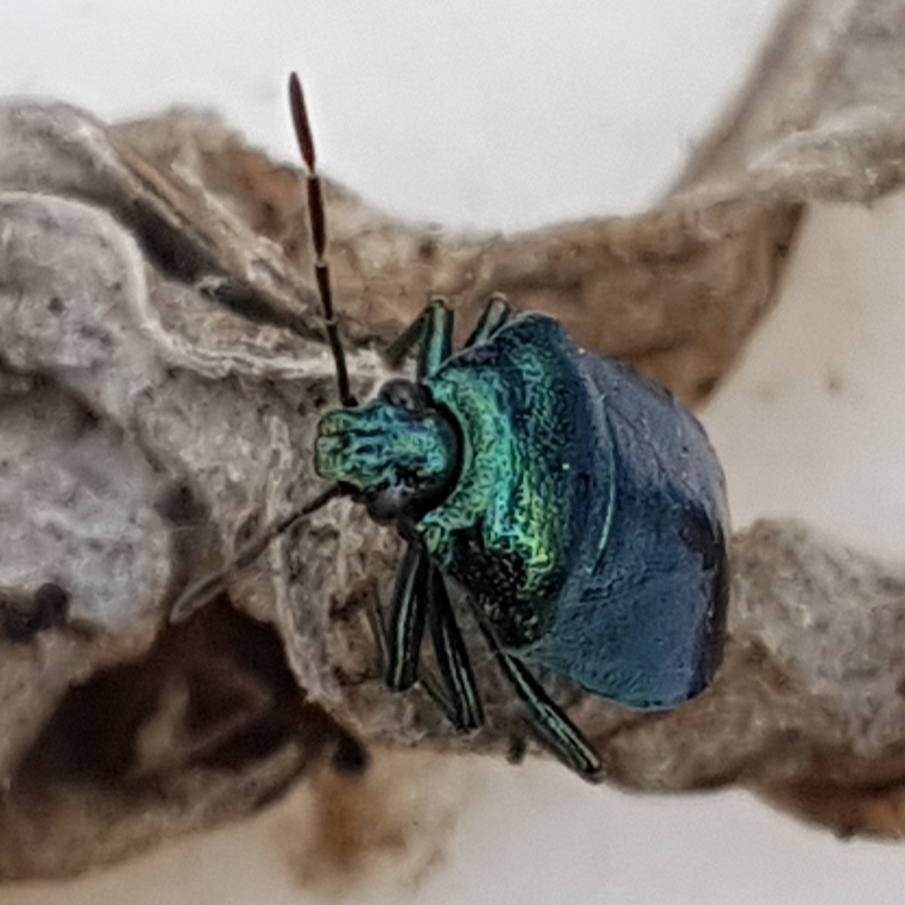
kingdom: Animalia
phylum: Arthropoda
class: Insecta
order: Hemiptera
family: Pentatomidae
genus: Zicrona
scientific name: Zicrona caerulea
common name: Blue shieldbug
